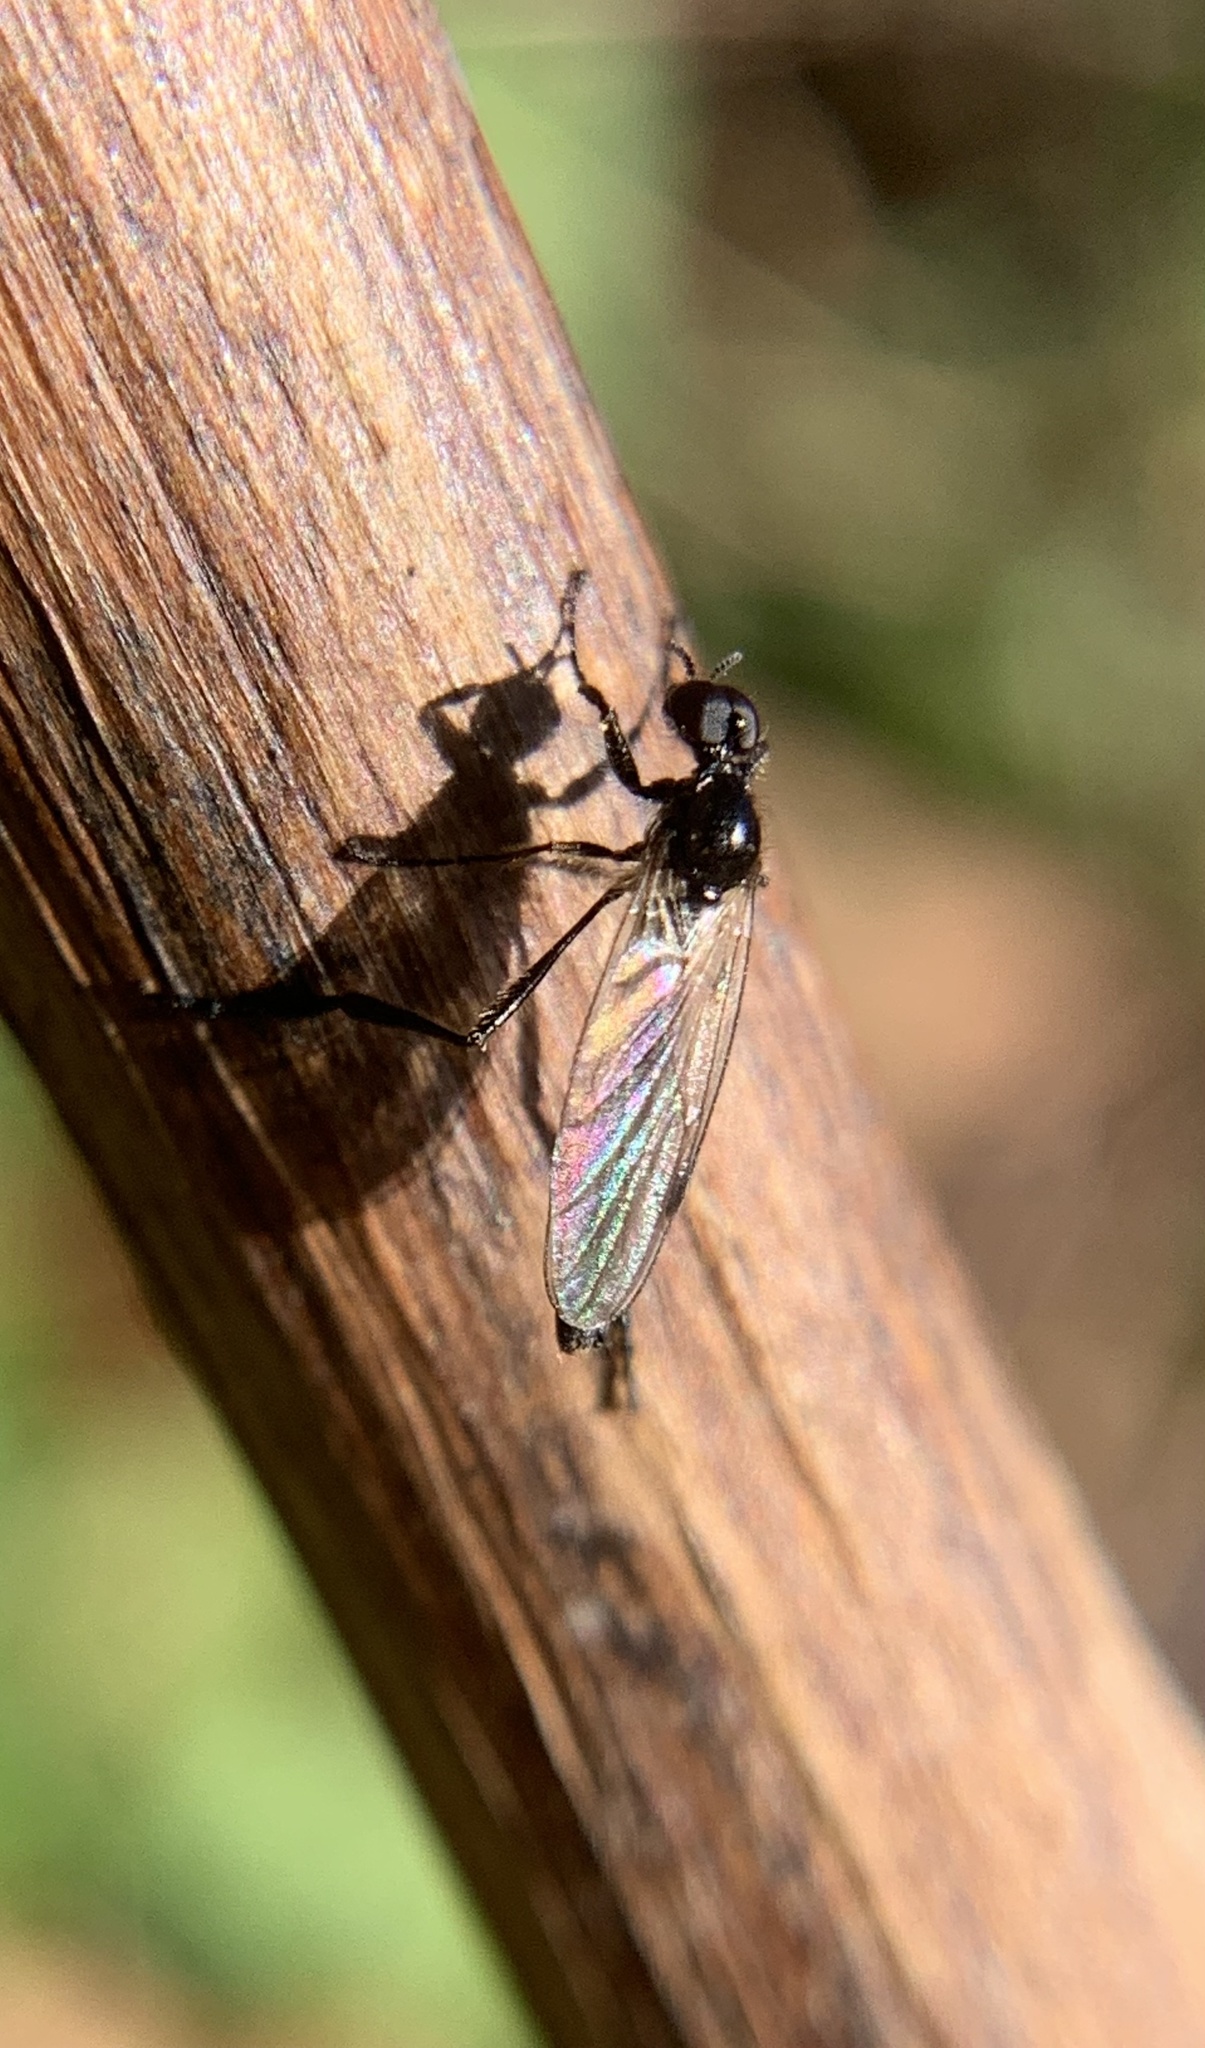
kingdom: Animalia
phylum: Arthropoda
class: Insecta
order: Diptera
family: Bibionidae
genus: Bibio
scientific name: Bibio
